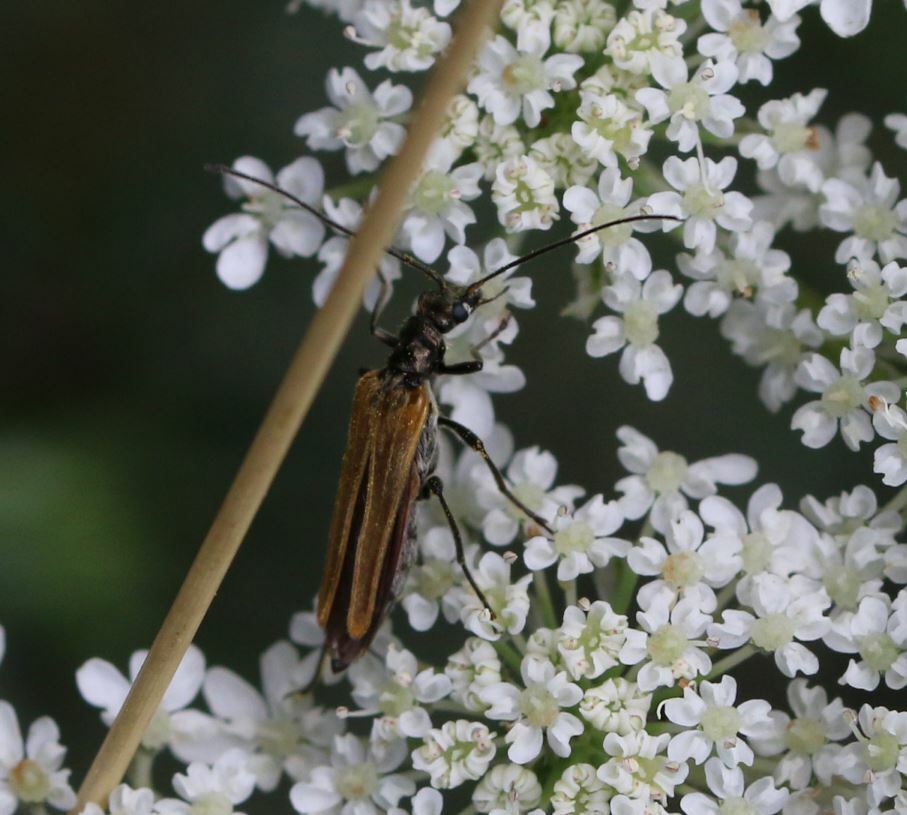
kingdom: Animalia
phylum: Arthropoda
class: Insecta
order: Coleoptera
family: Oedemeridae
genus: Oedemera
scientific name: Oedemera femorata
